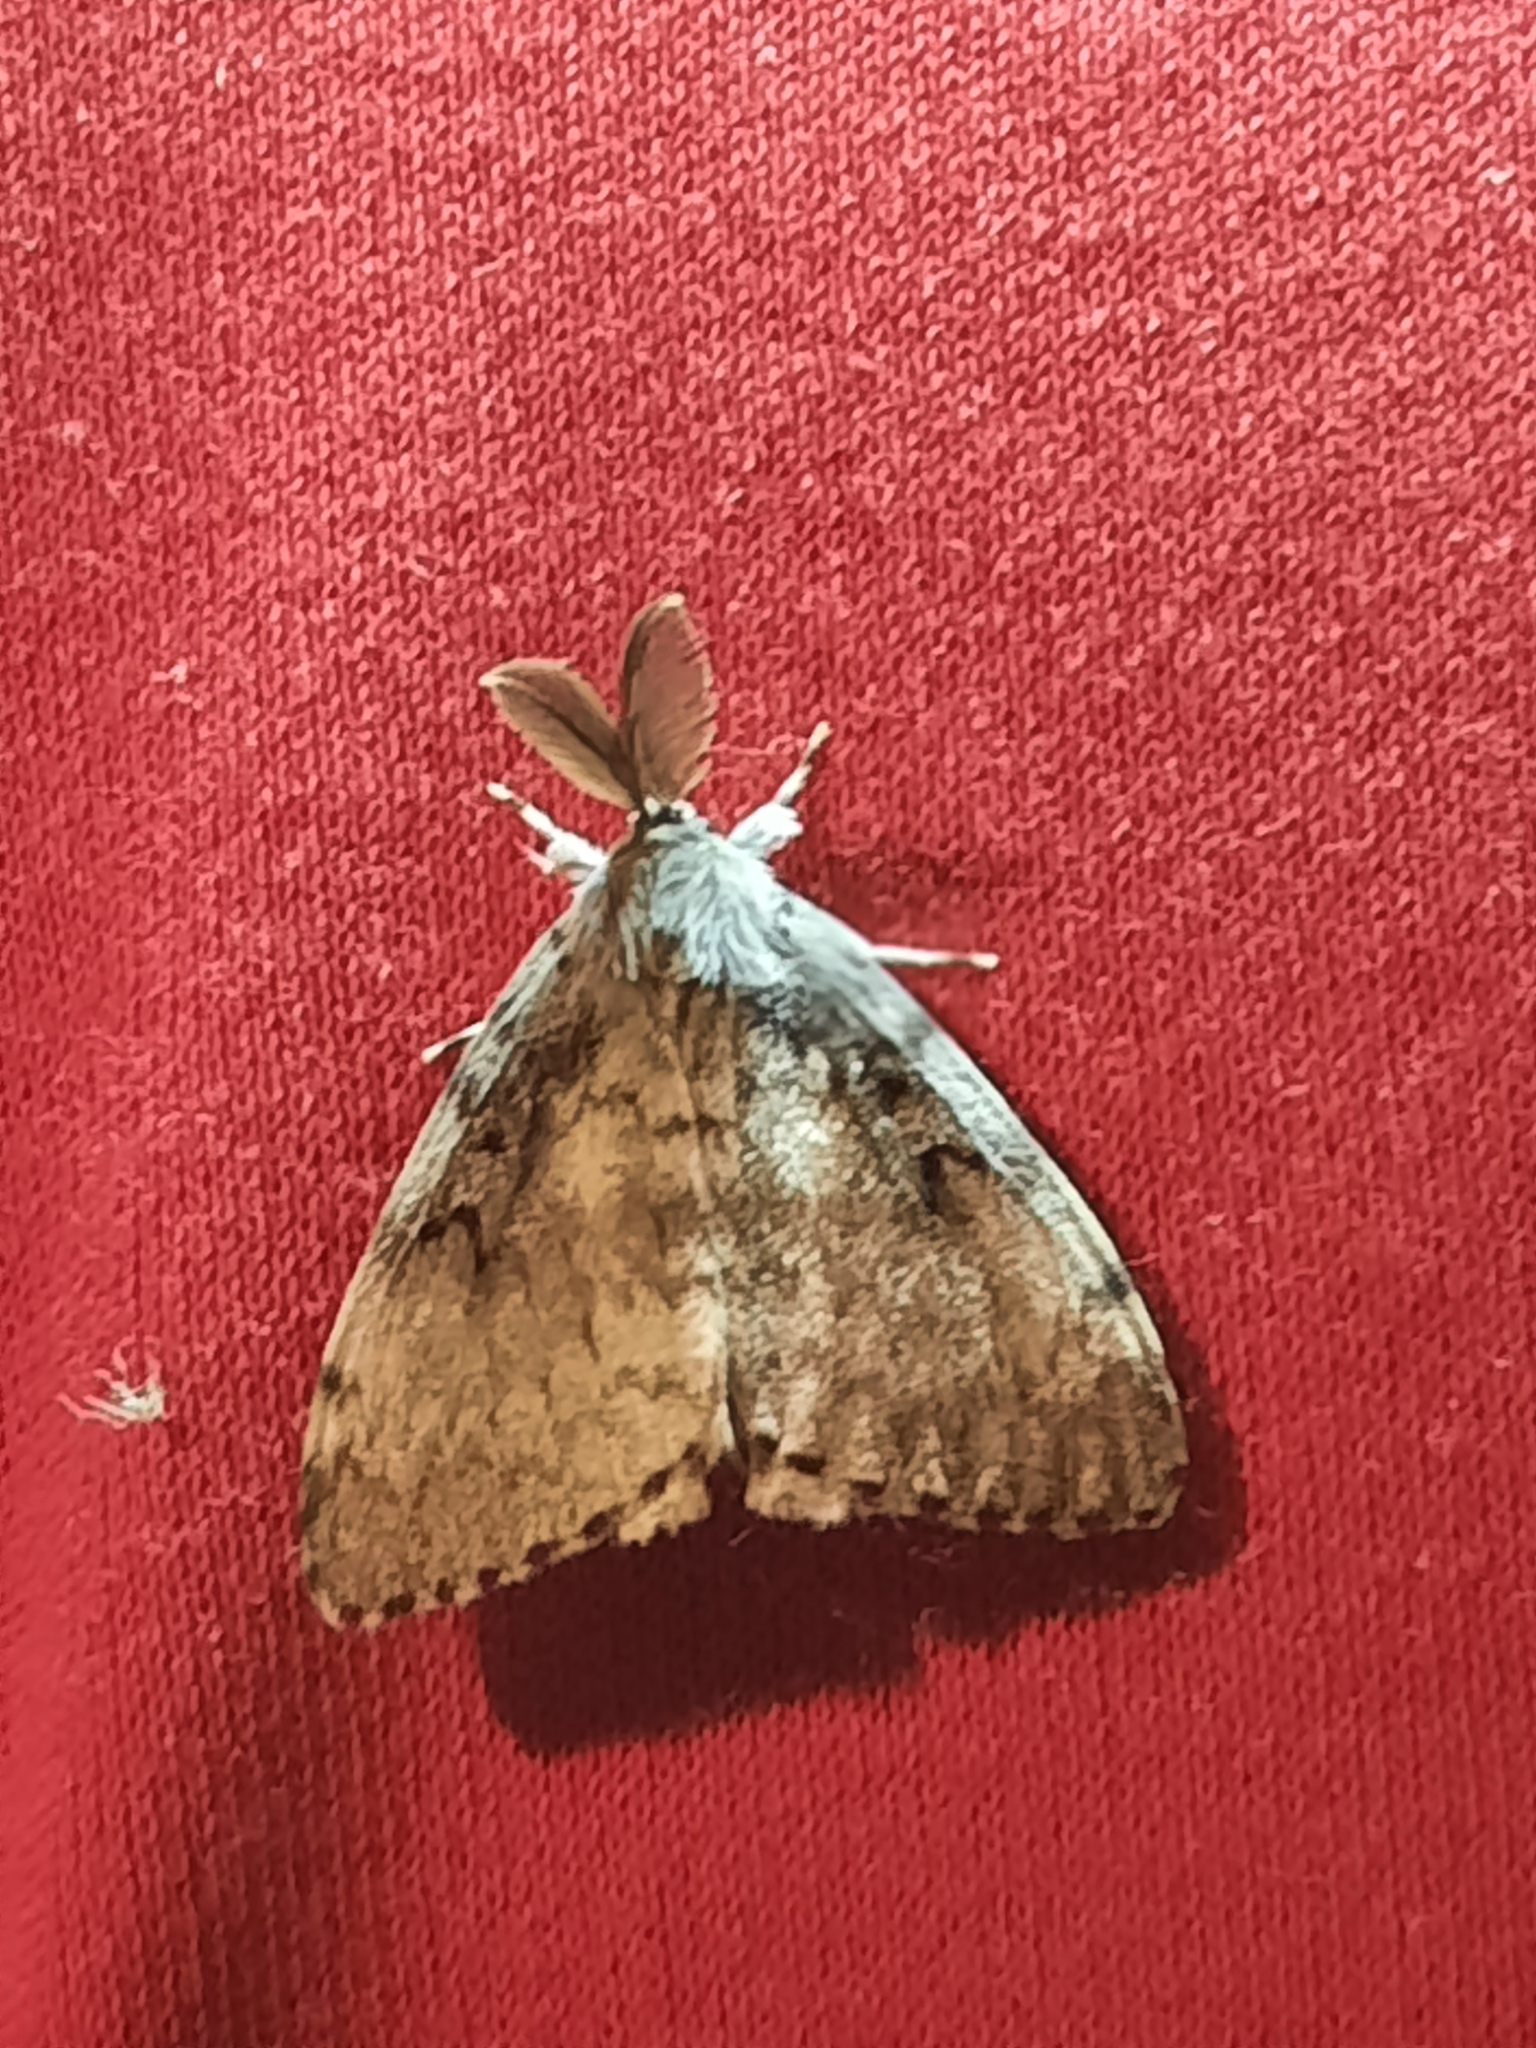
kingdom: Animalia
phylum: Arthropoda
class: Insecta
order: Lepidoptera
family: Erebidae
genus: Lymantria
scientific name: Lymantria dispar
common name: Gypsy moth
